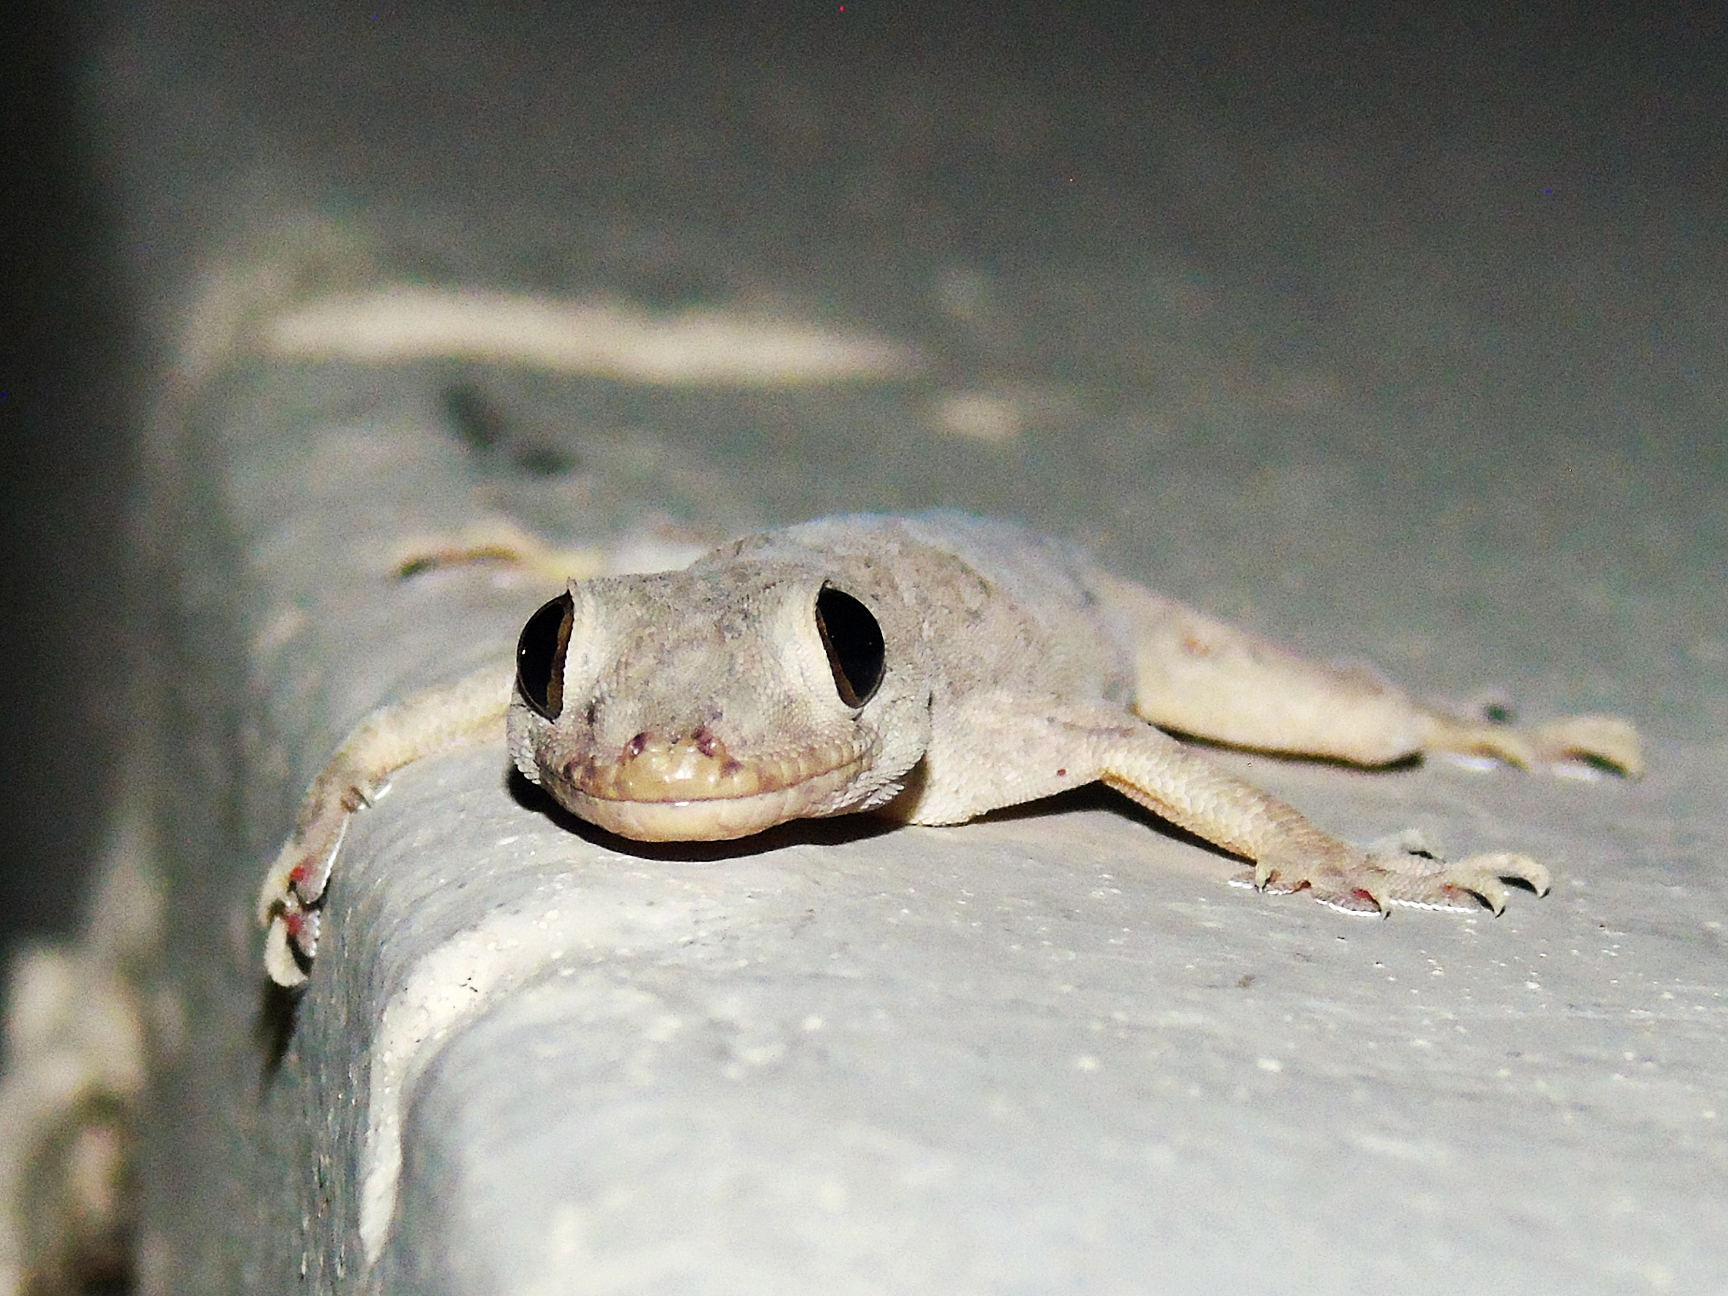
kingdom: Animalia
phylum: Chordata
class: Squamata
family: Gekkonidae
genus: Hemidactylus
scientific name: Hemidactylus flaviviridis
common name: Northern house gecko
